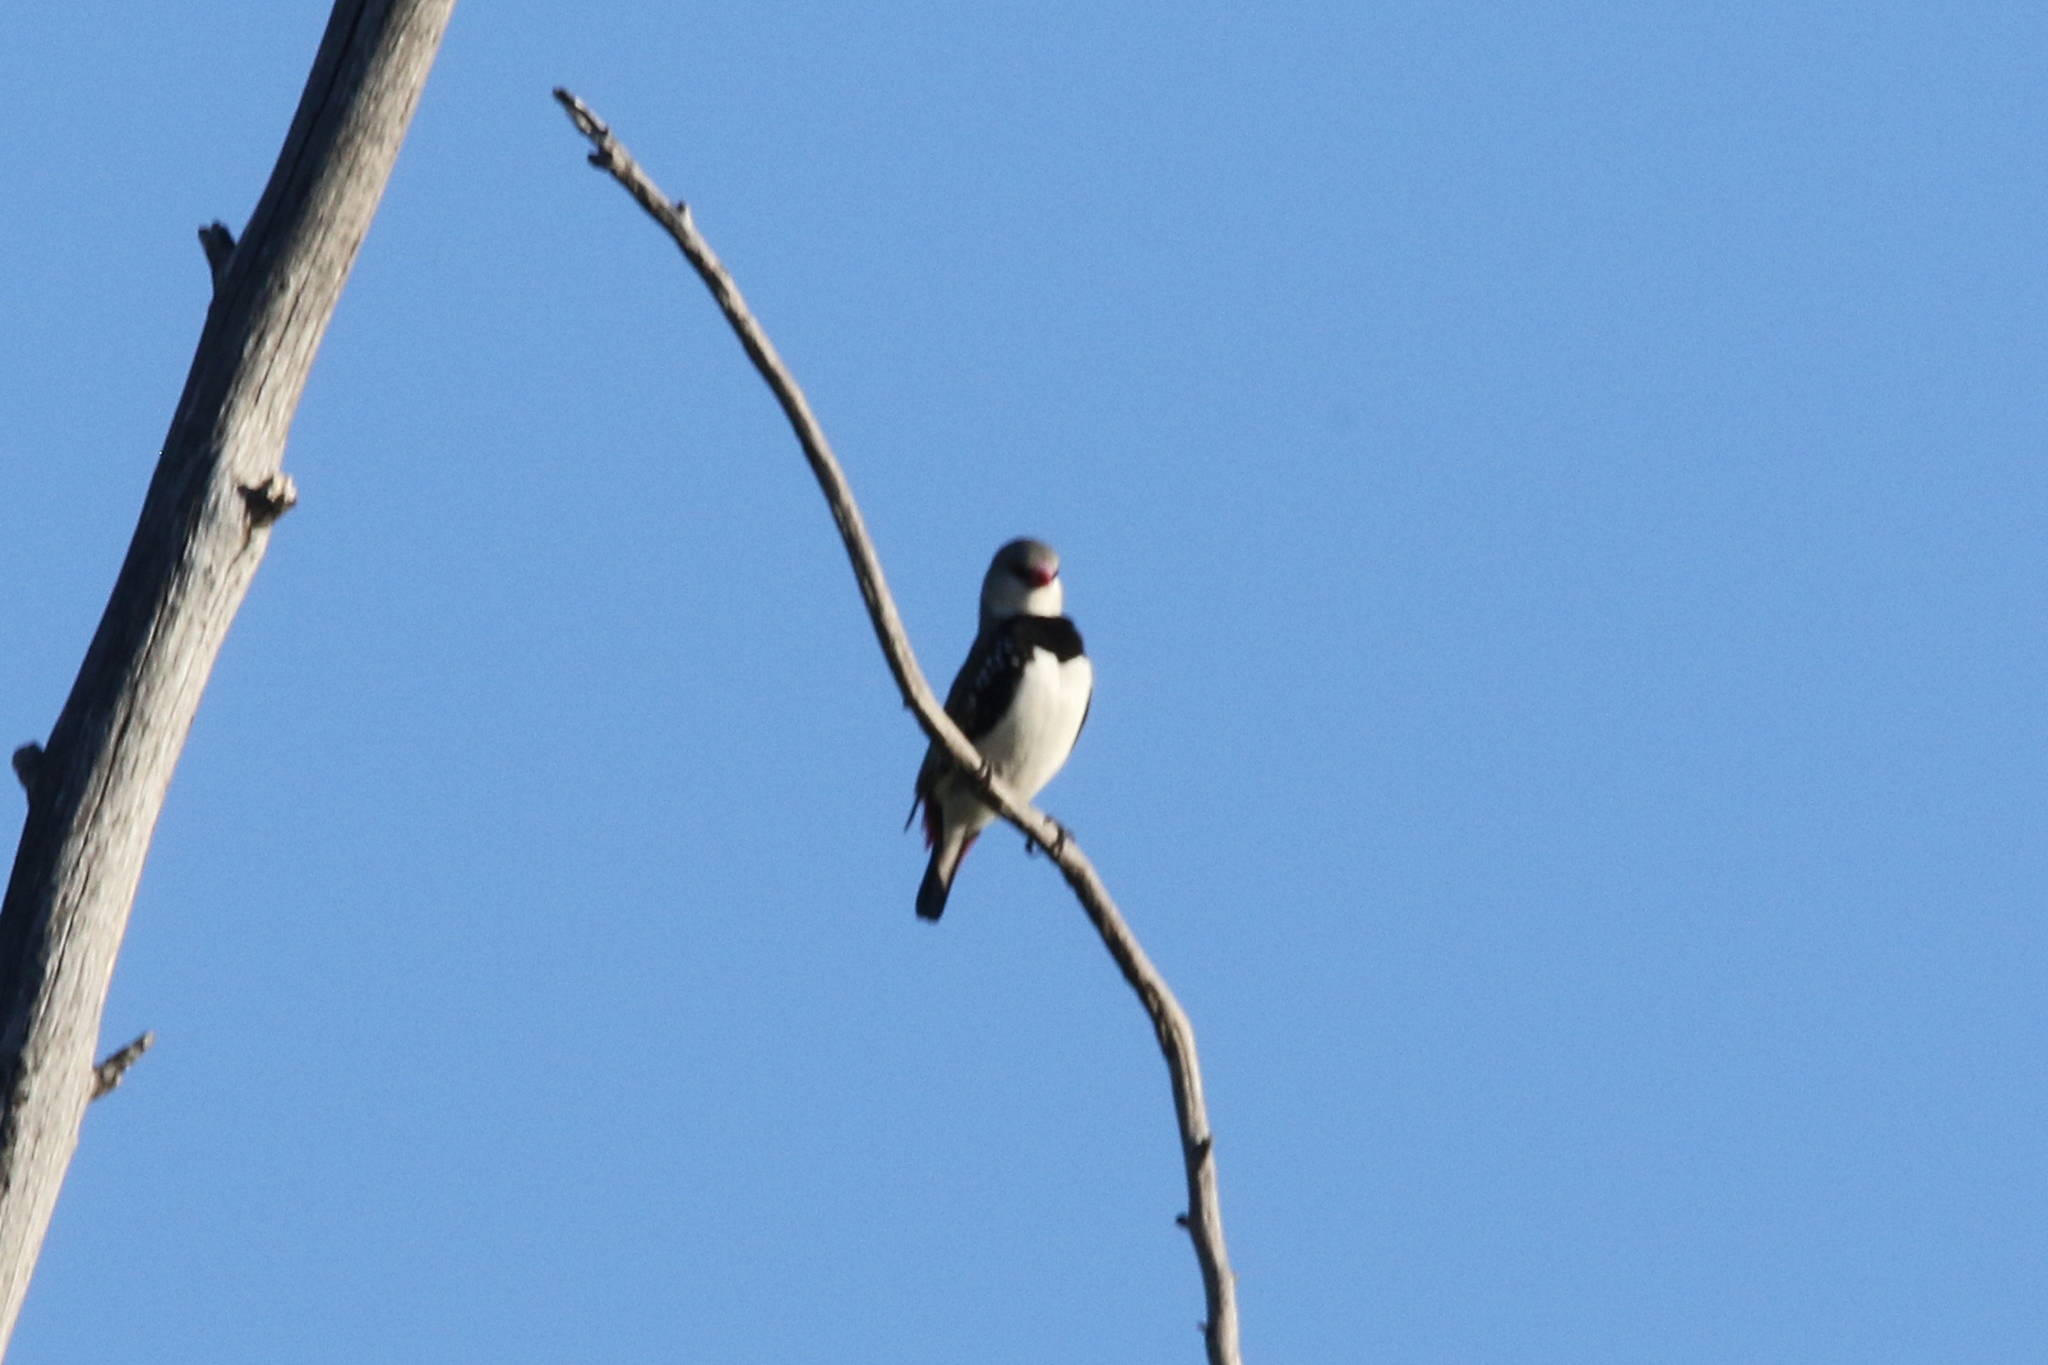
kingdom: Animalia
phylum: Chordata
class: Aves
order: Passeriformes
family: Estrildidae
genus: Stagonopleura
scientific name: Stagonopleura guttata
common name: Diamond firetail
